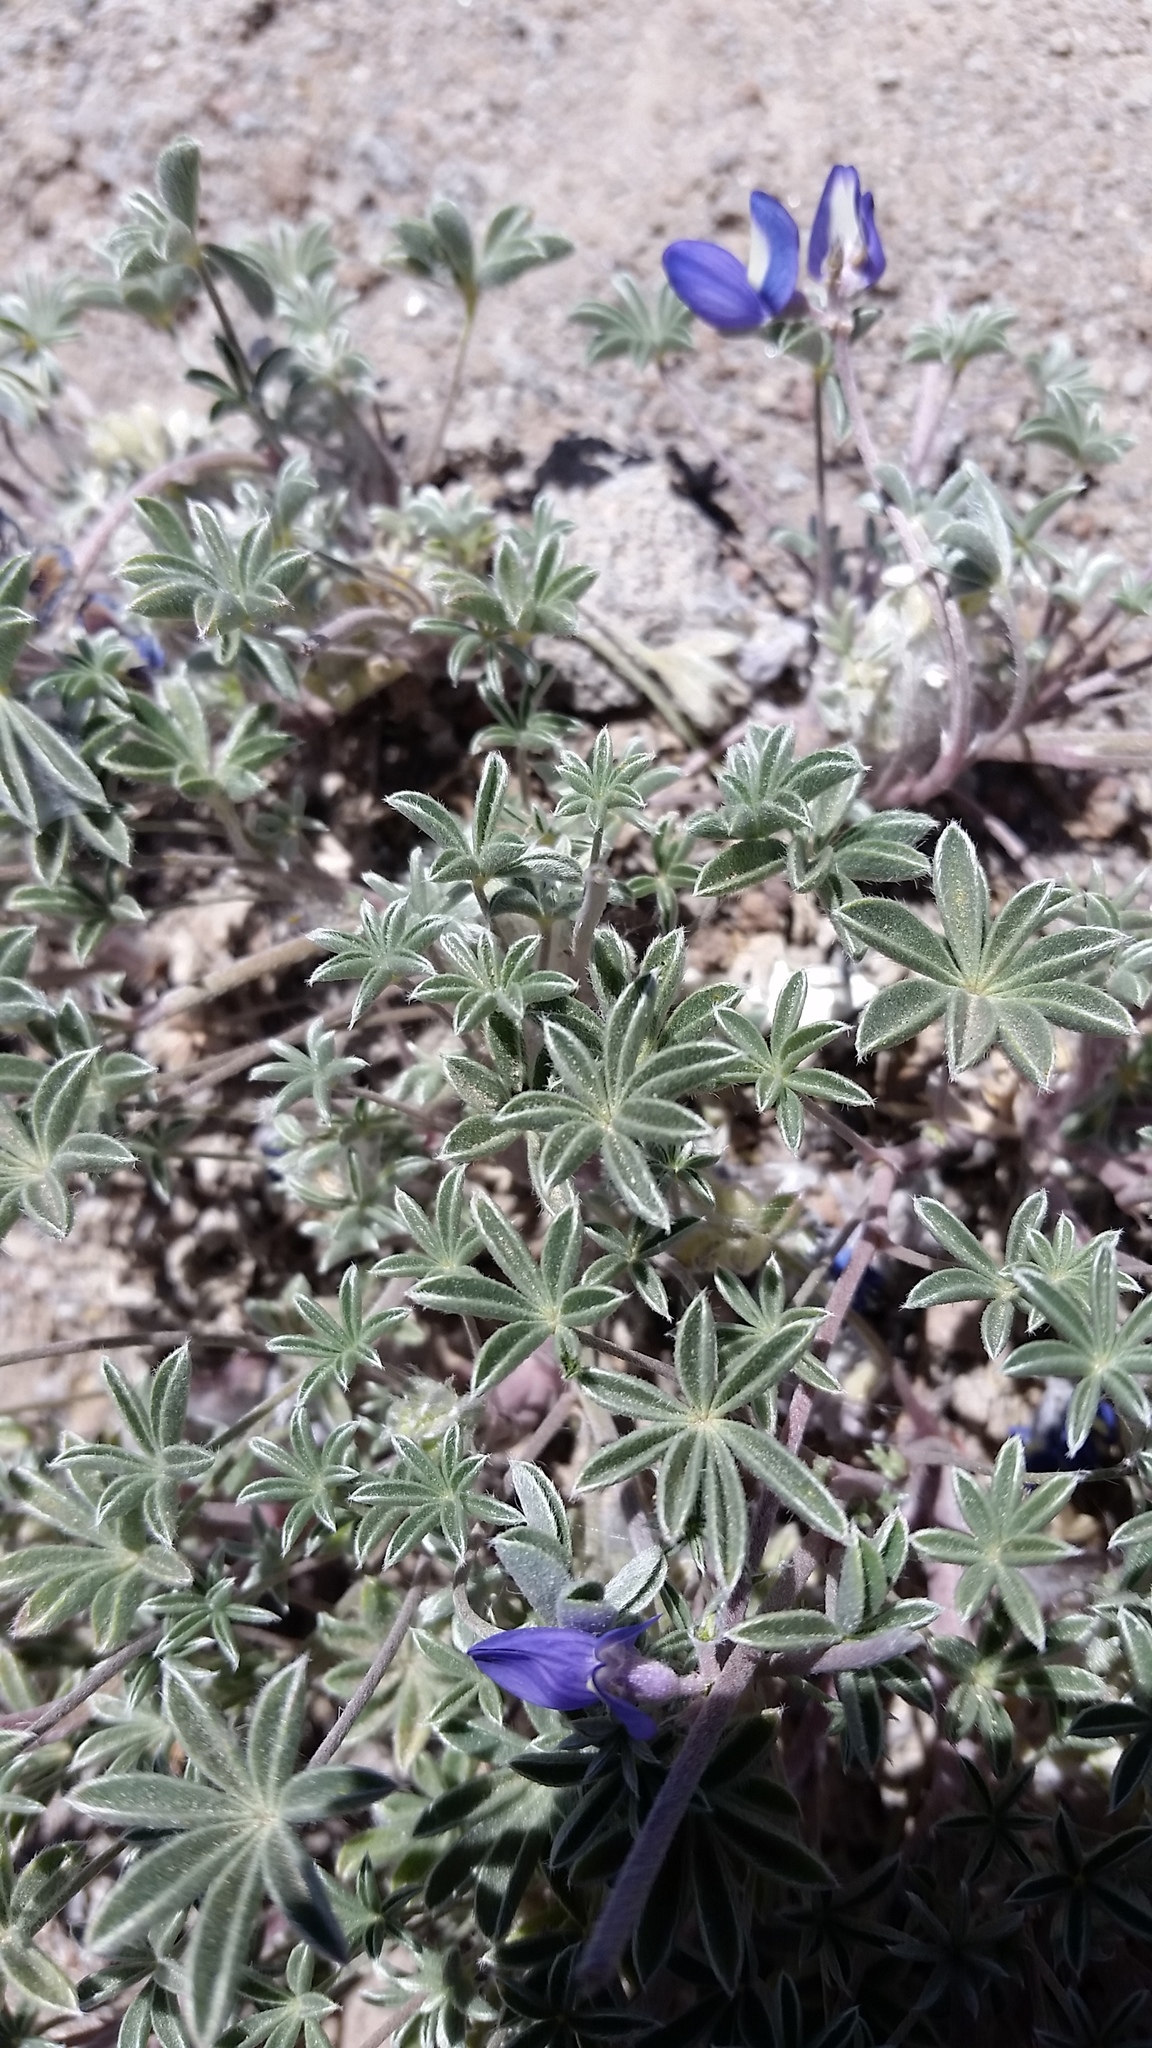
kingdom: Plantae
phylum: Tracheophyta
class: Magnoliopsida
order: Fabales
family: Fabaceae
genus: Lupinus
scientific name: Lupinus sellulus
